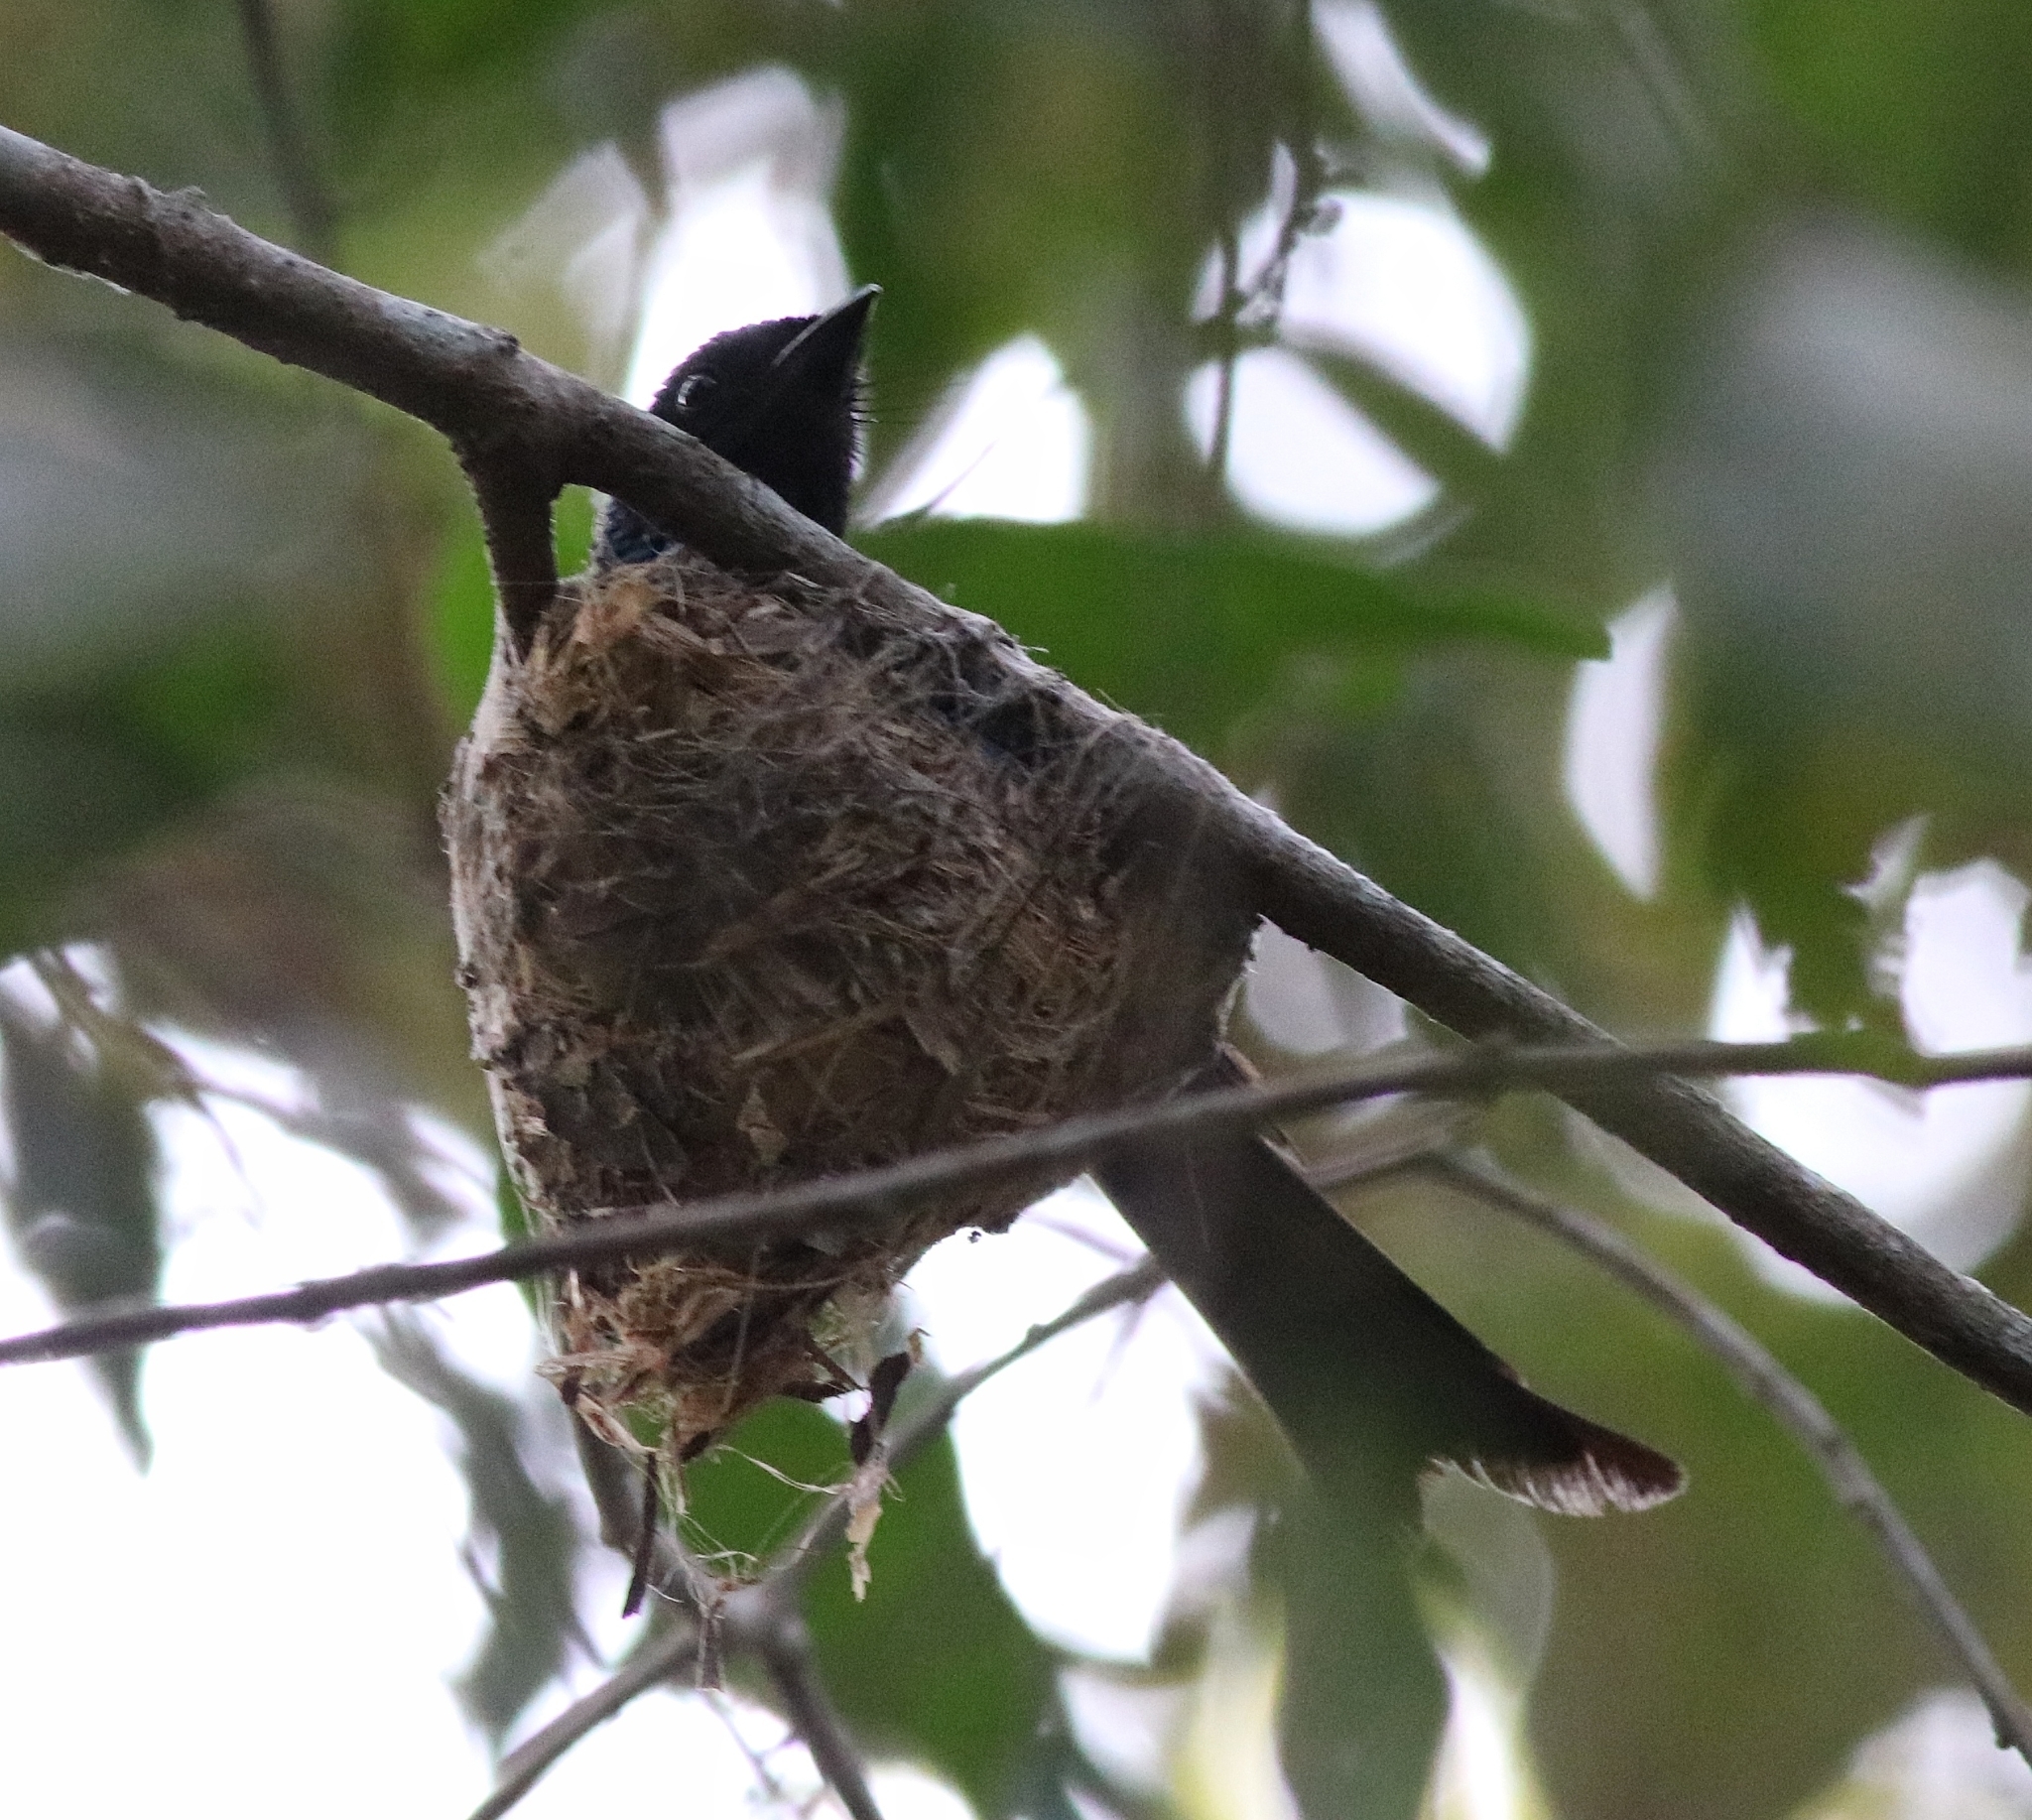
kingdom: Animalia
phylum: Chordata
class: Aves
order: Passeriformes
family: Dicruridae
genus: Dicrurus
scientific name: Dicrurus aeneus
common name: Bronzed drongo
